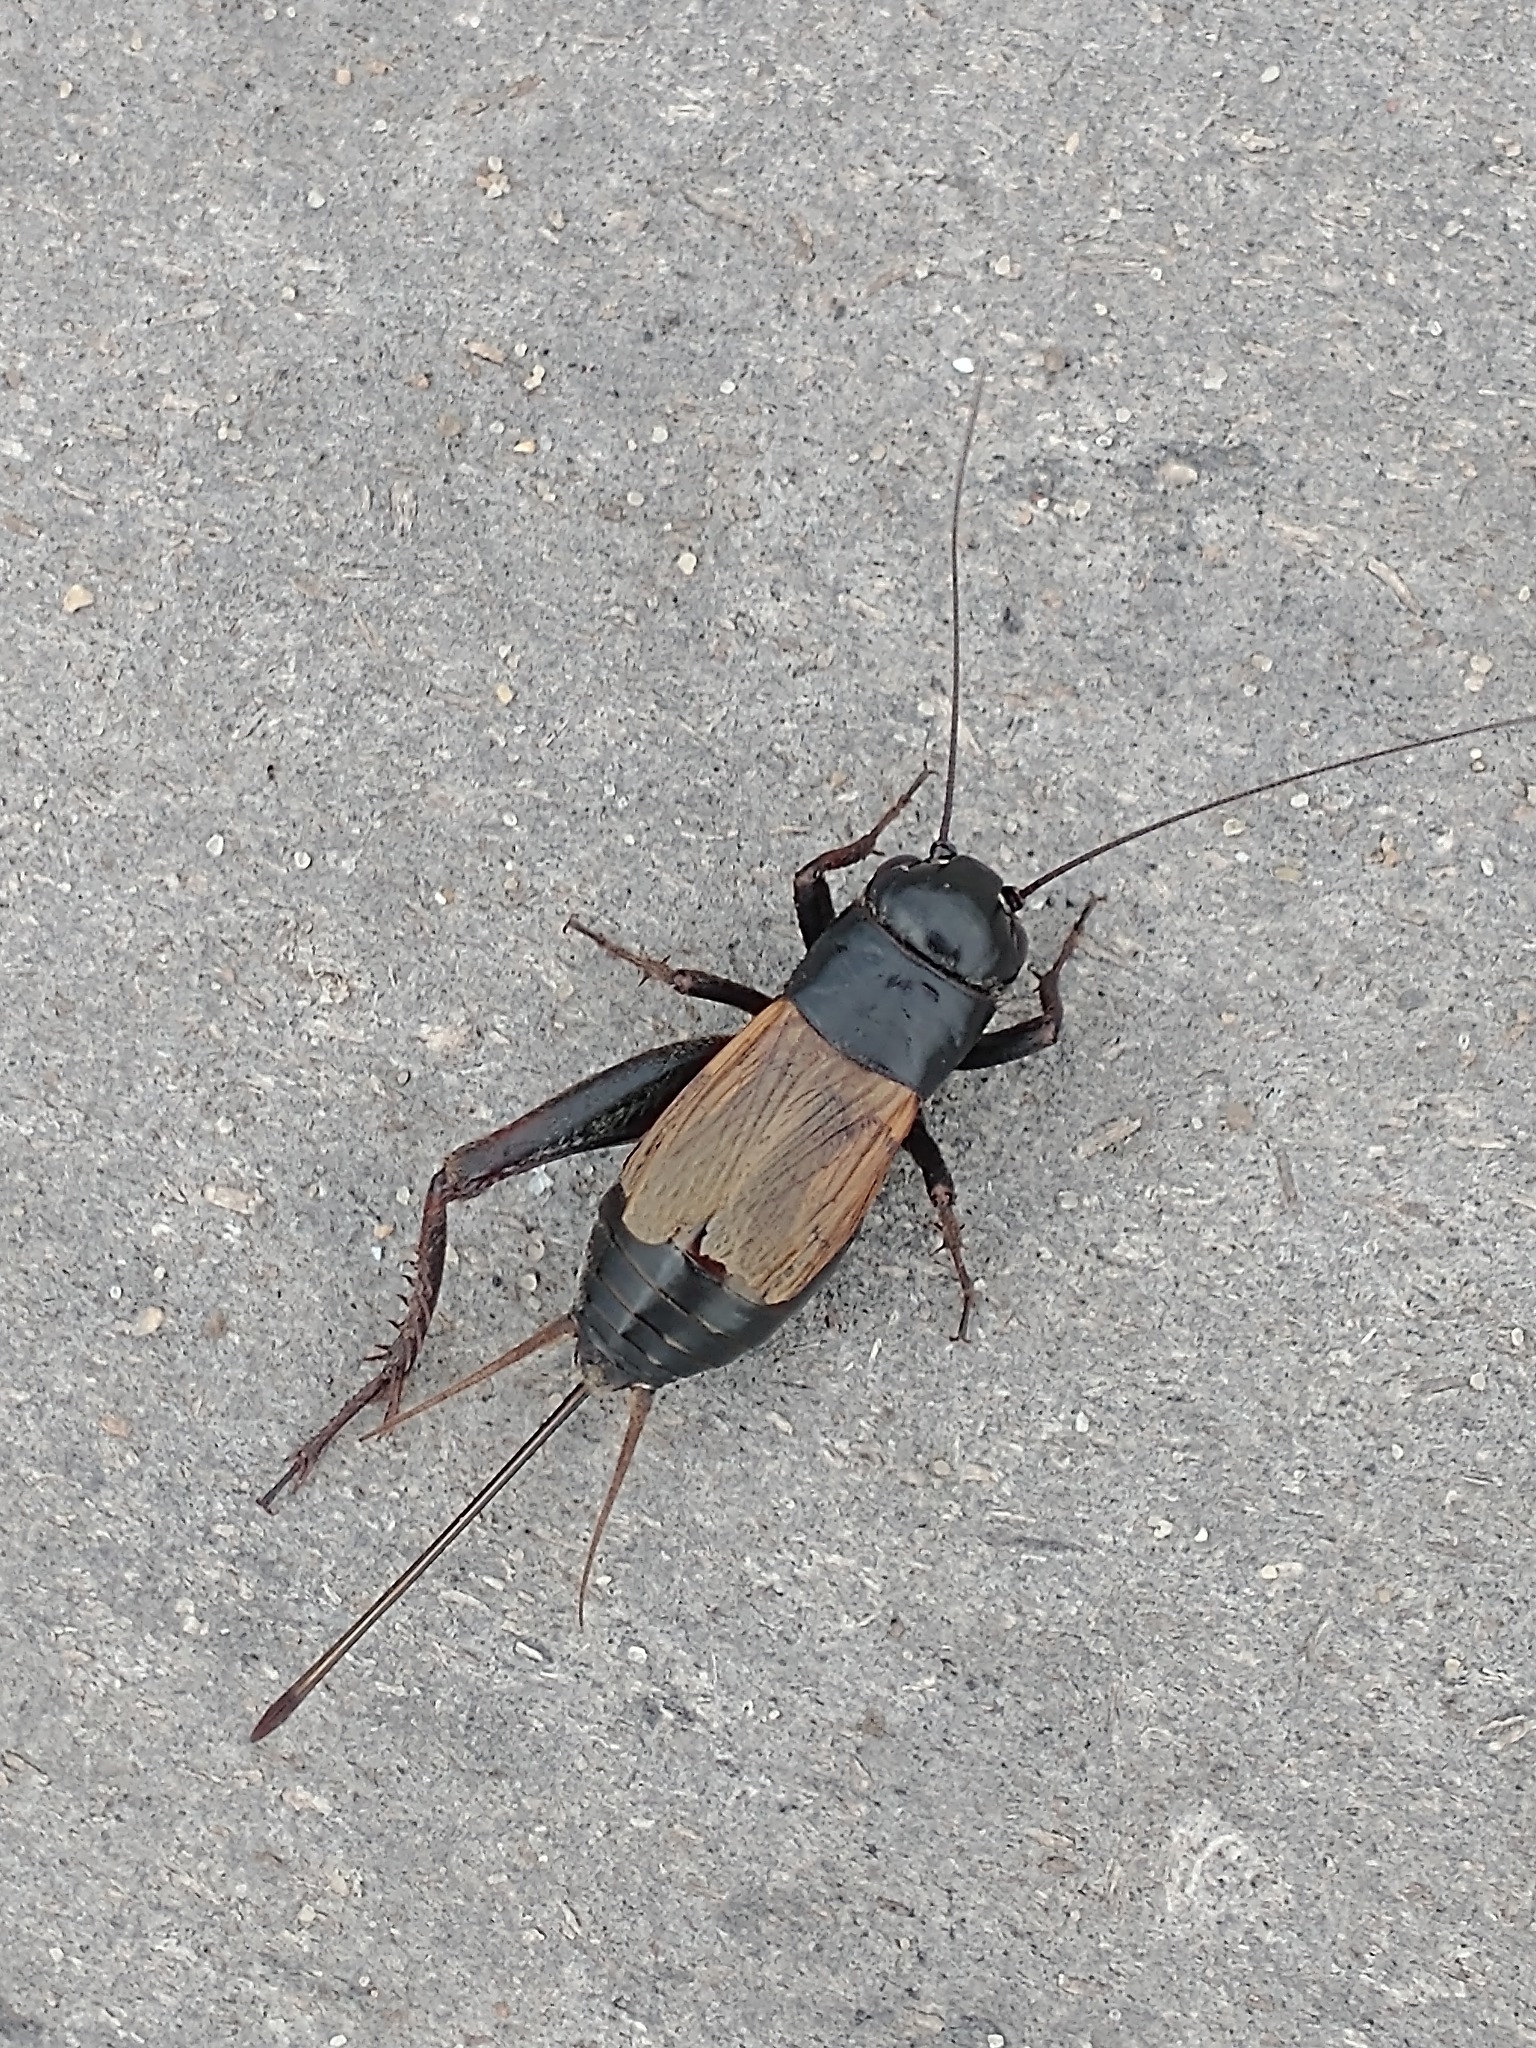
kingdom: Animalia
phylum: Arthropoda
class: Insecta
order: Orthoptera
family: Gryllidae
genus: Gryllus
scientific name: Gryllus pennsylvanicus
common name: Fall field cricket
